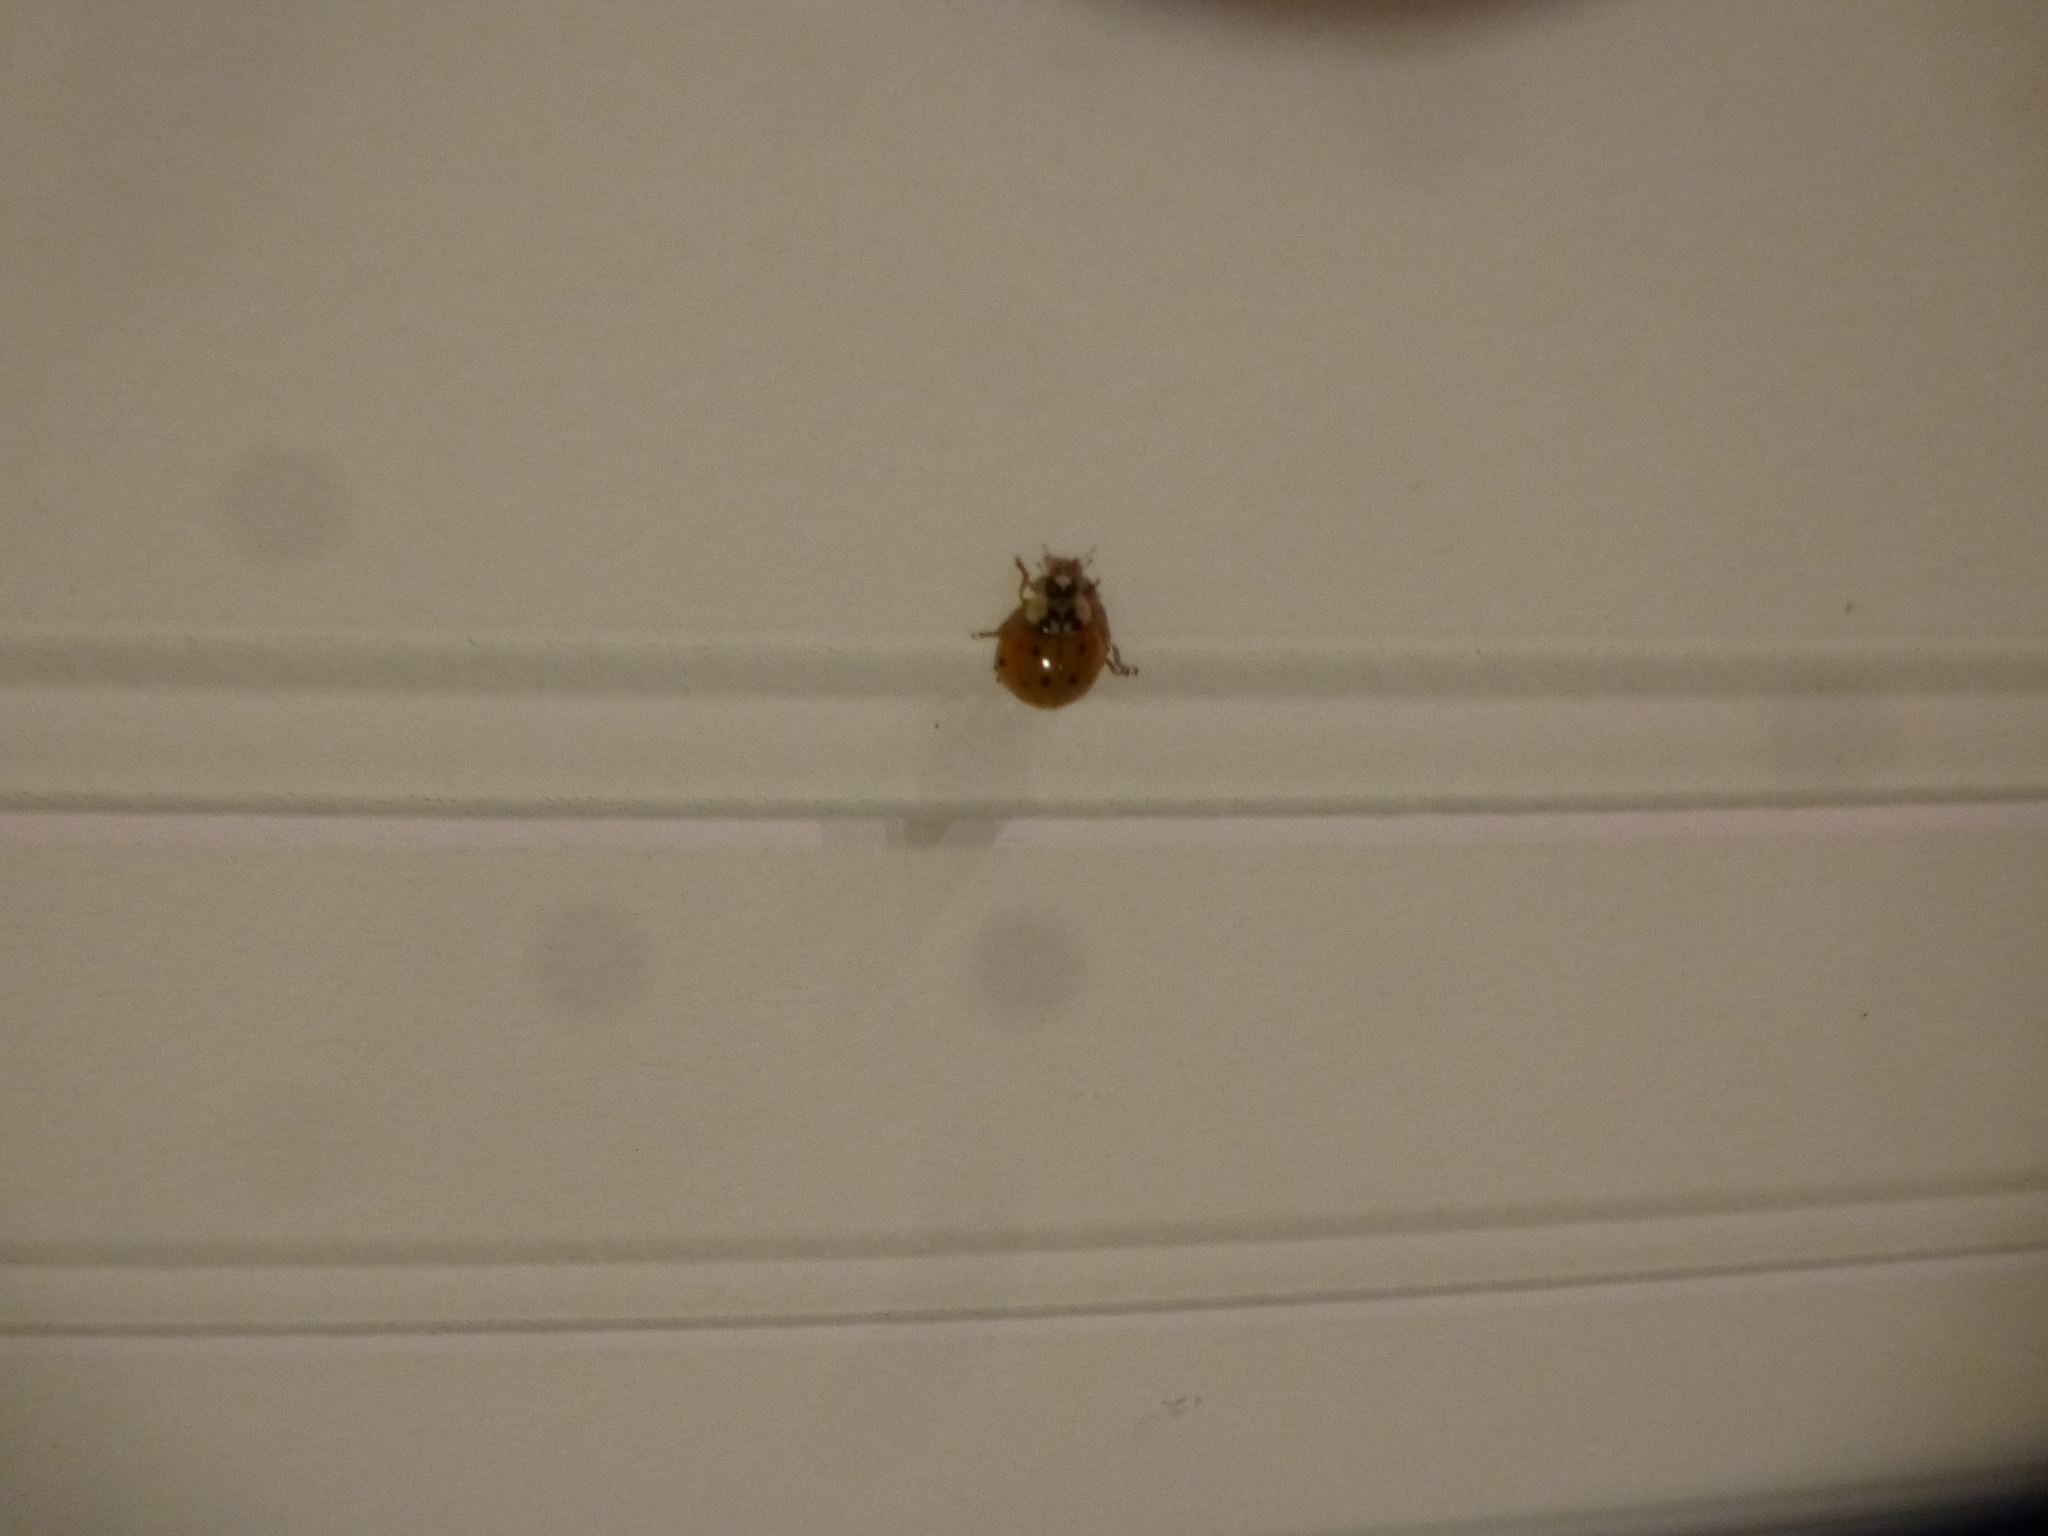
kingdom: Animalia
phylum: Arthropoda
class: Insecta
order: Coleoptera
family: Coccinellidae
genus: Harmonia
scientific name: Harmonia axyridis
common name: Harlequin ladybird
